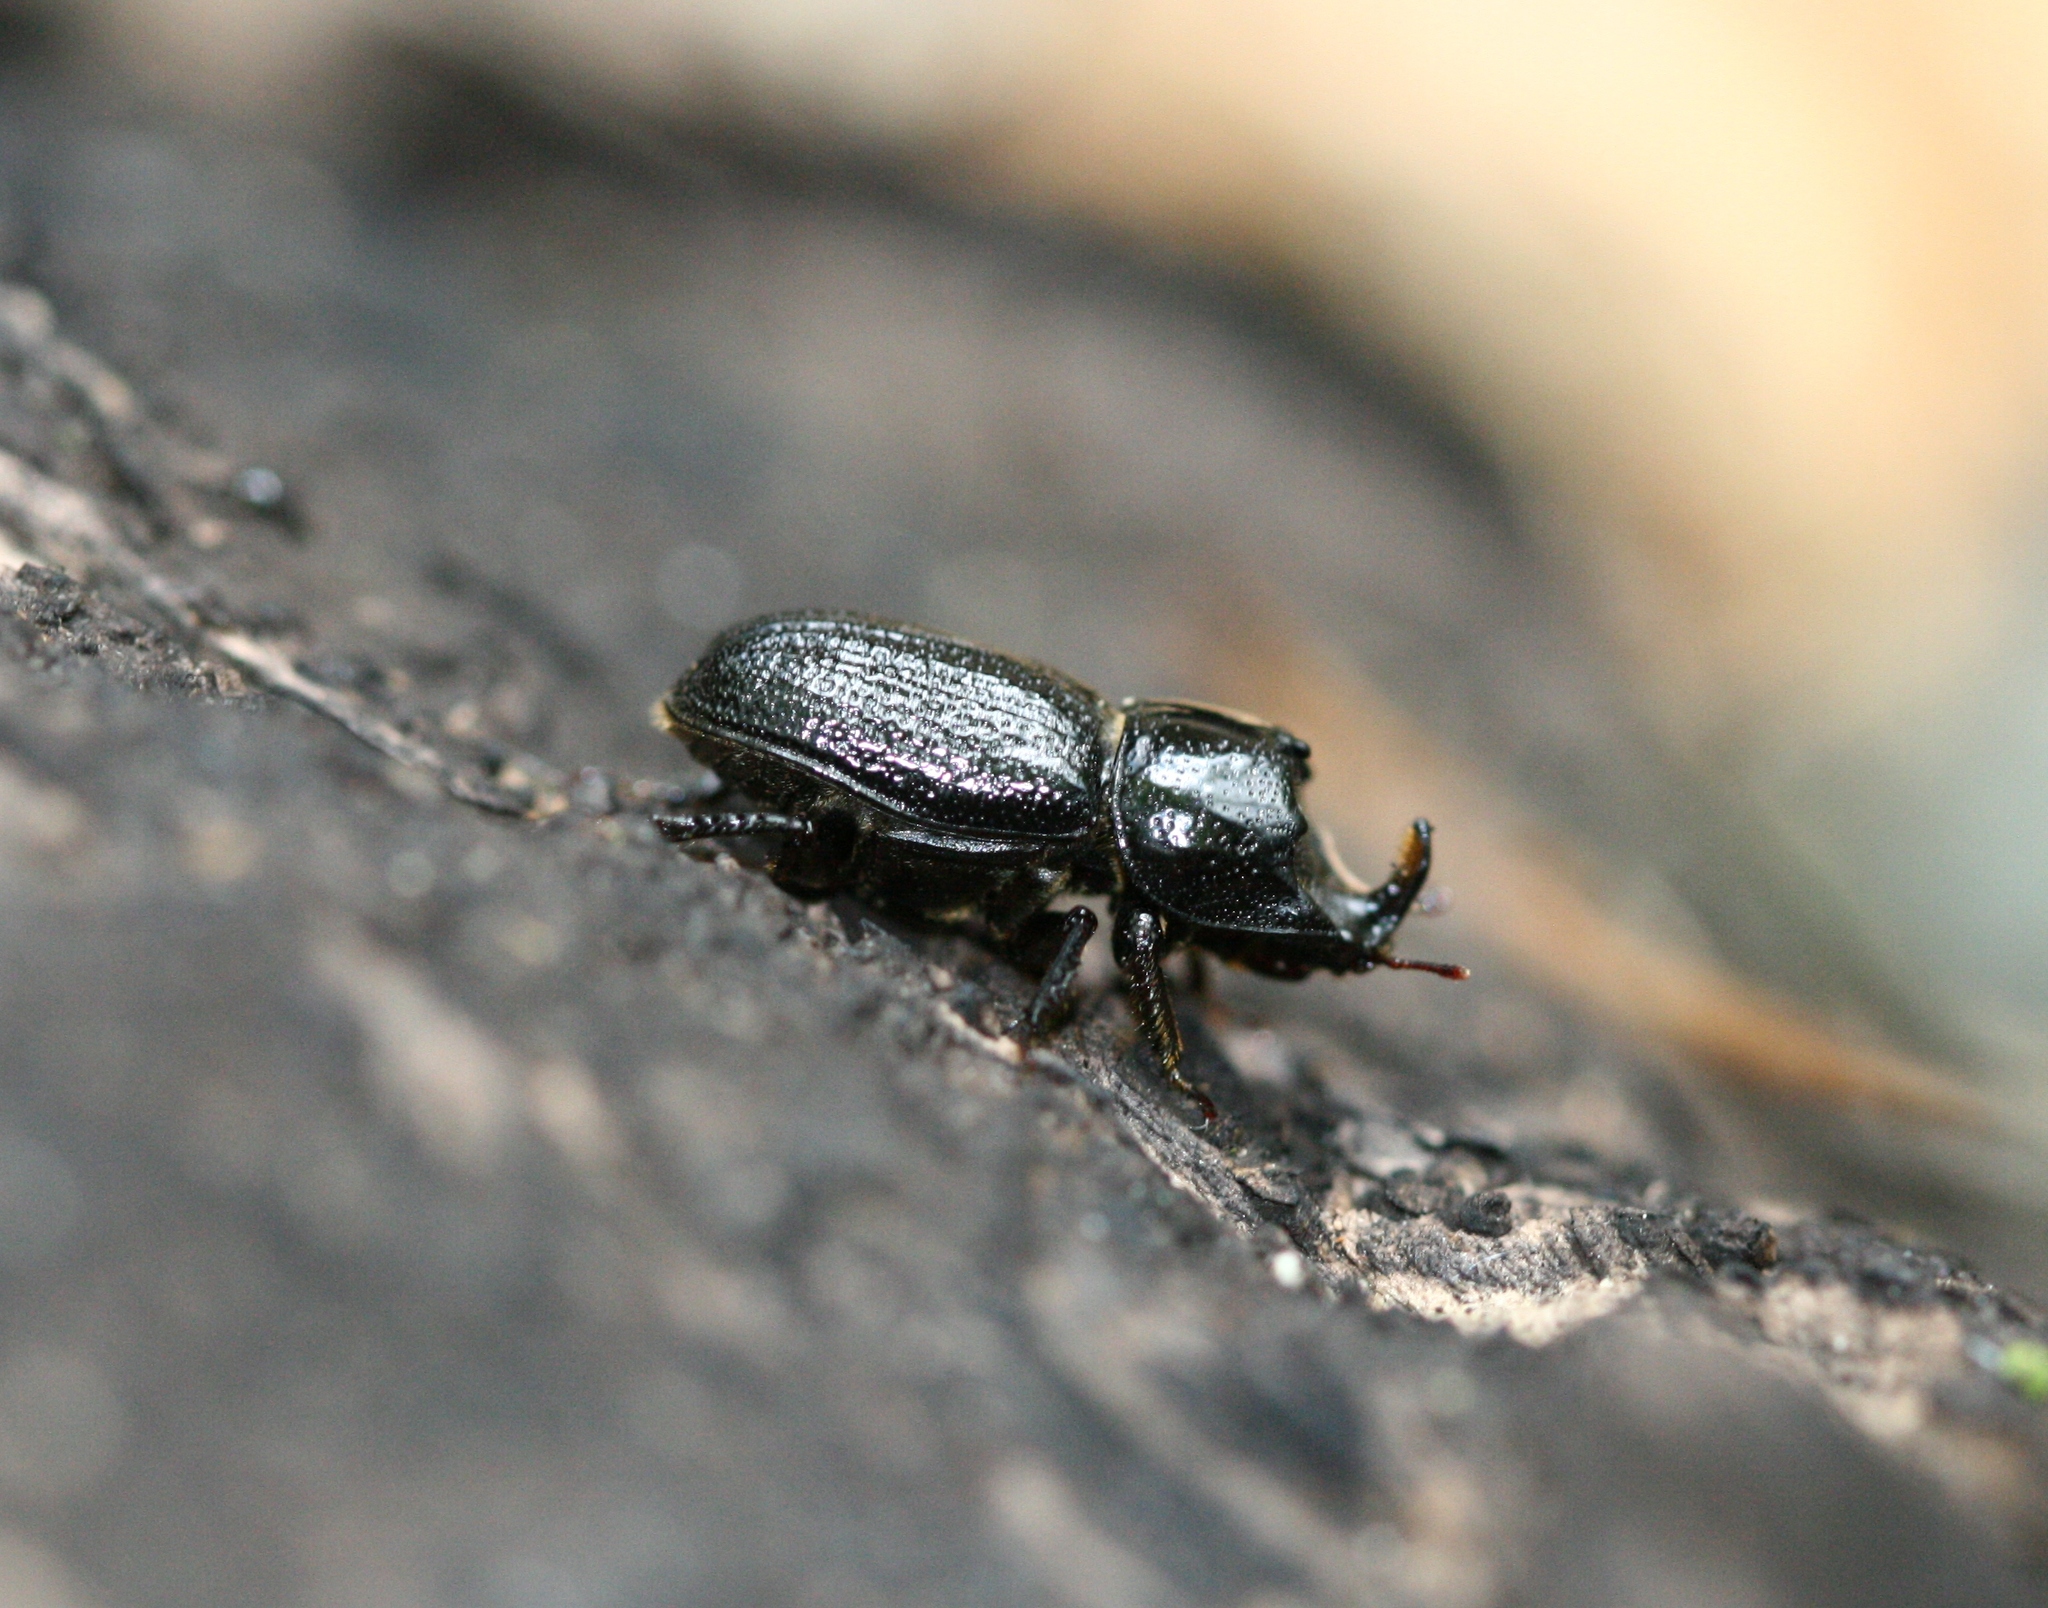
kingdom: Animalia
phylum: Arthropoda
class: Insecta
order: Coleoptera
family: Lucanidae
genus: Sinodendron
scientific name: Sinodendron cylindricum
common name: Rhinoceros beetle
